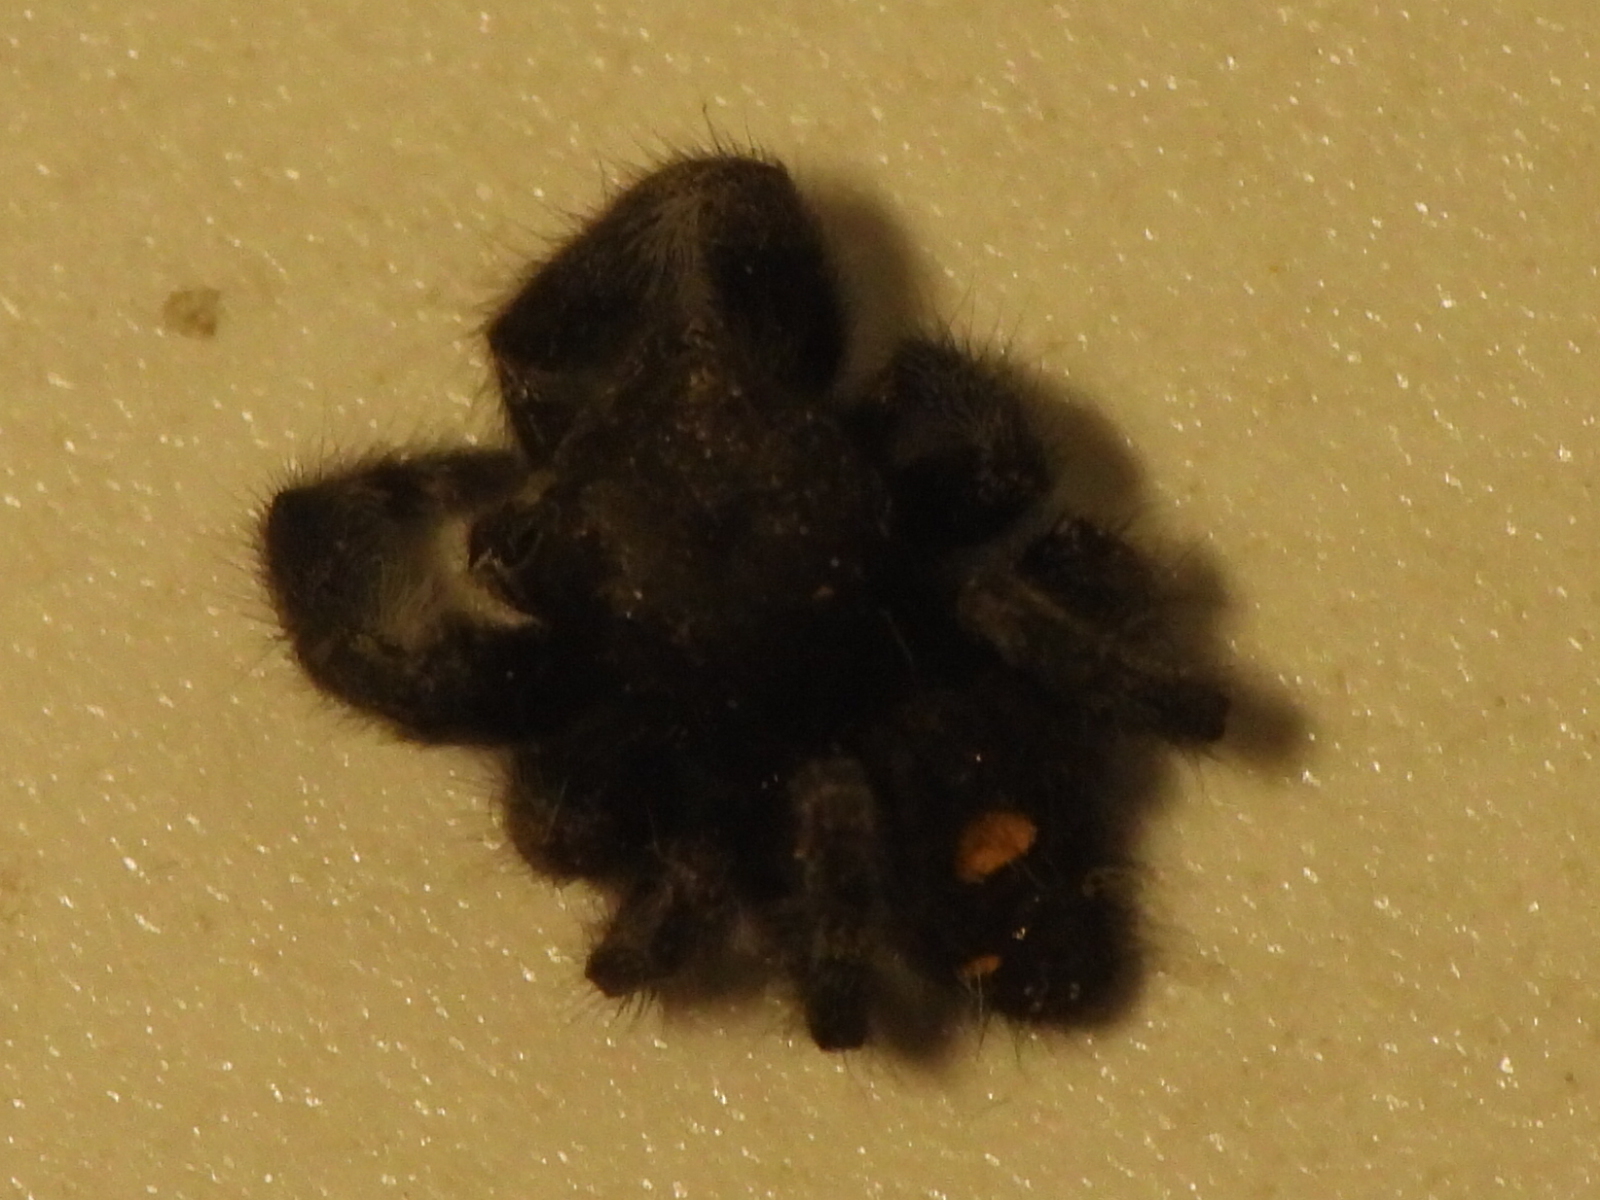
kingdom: Animalia
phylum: Arthropoda
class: Arachnida
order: Araneae
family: Salticidae
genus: Phidippus
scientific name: Phidippus audax
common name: Bold jumper
